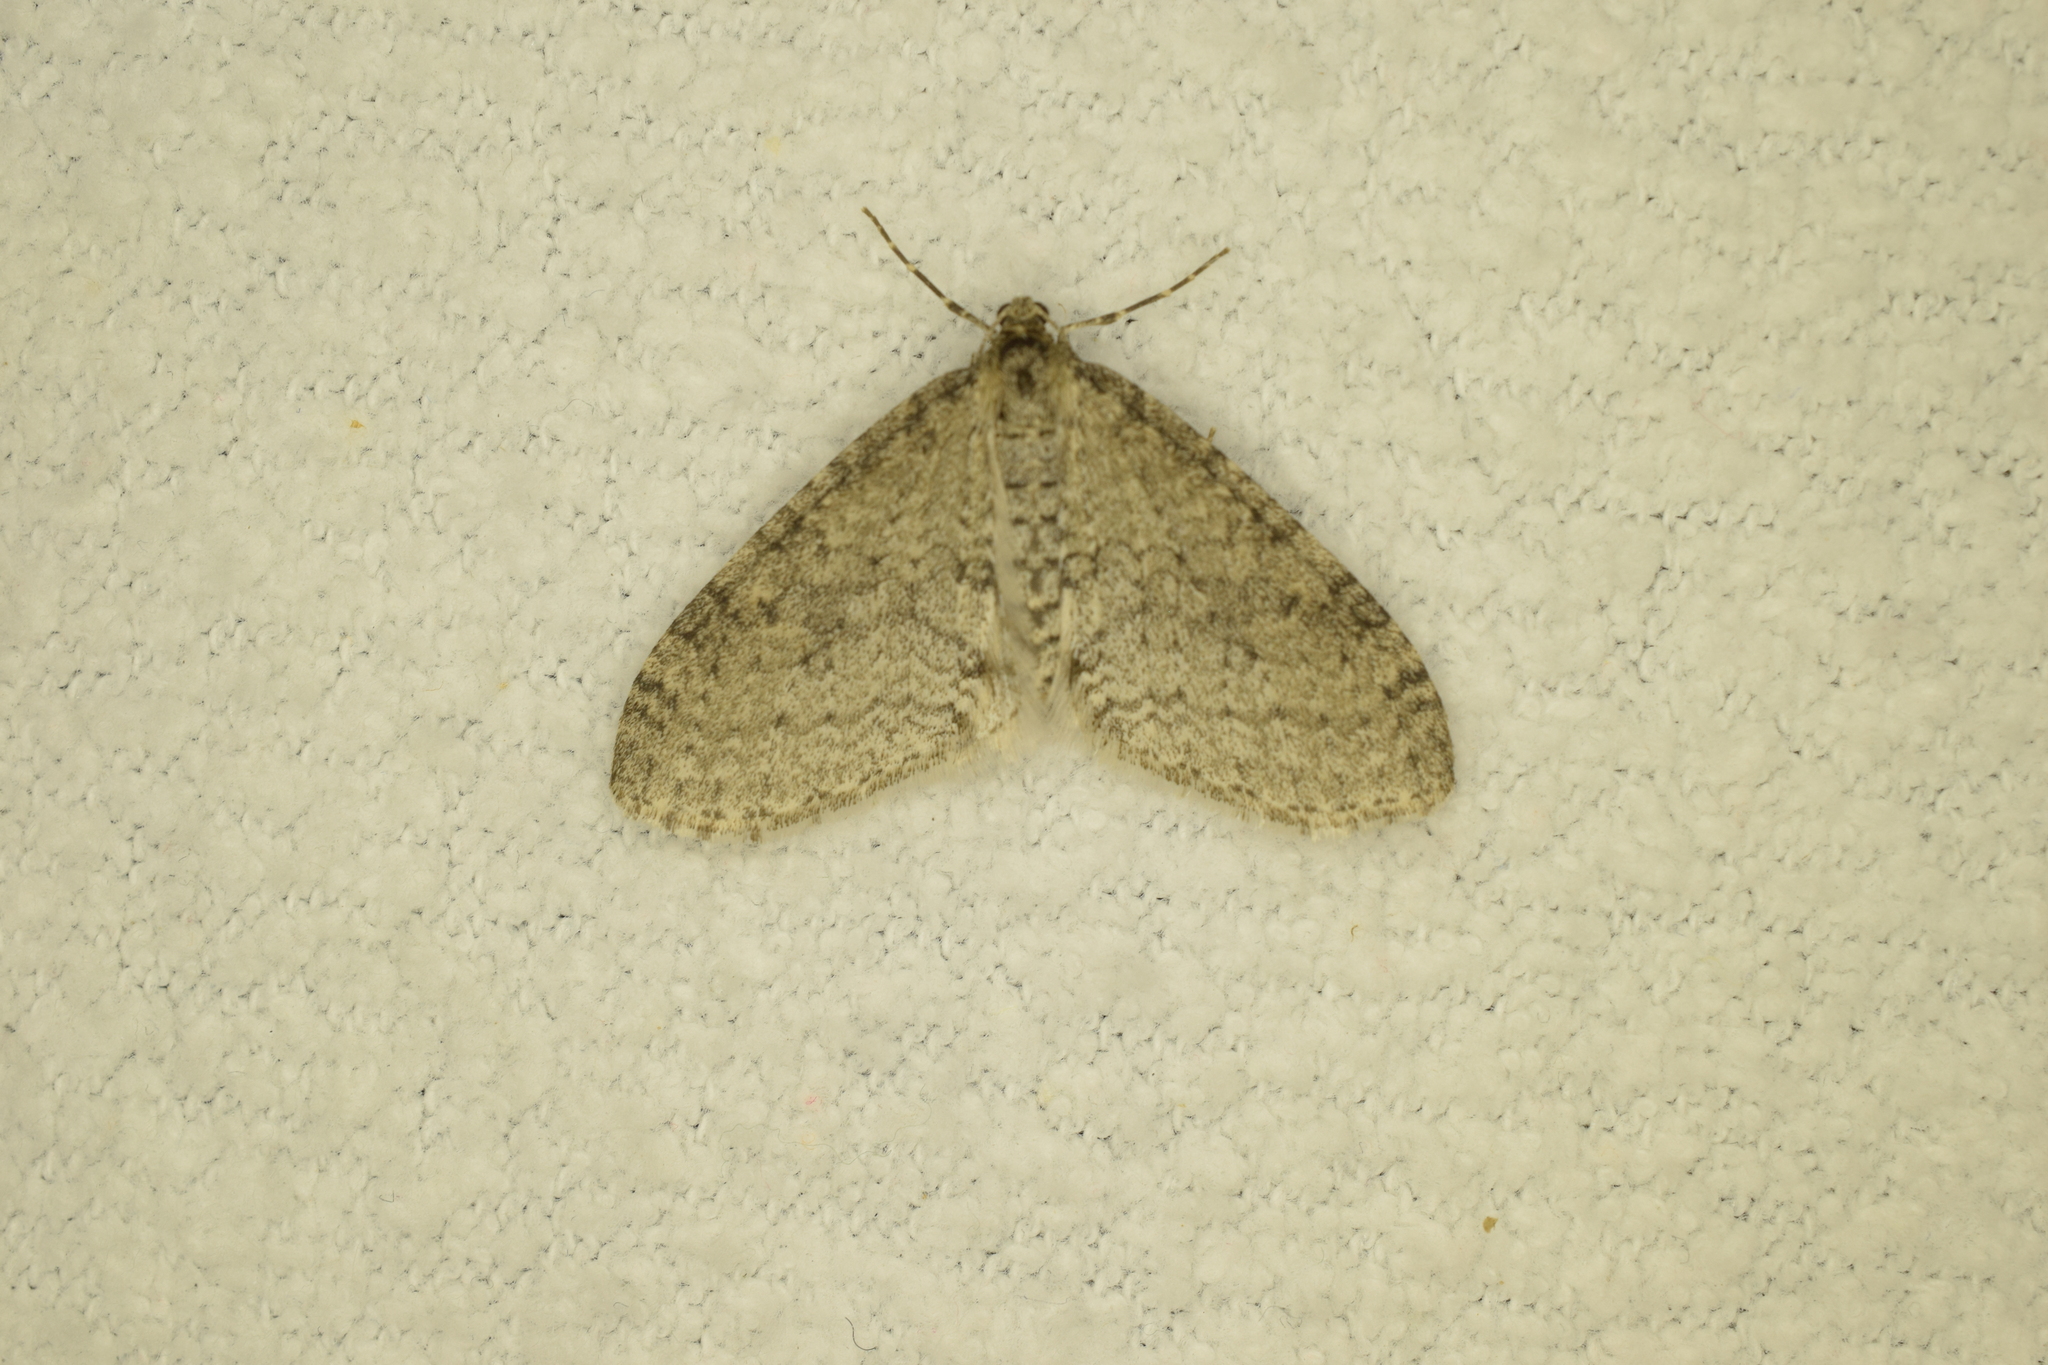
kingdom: Animalia
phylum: Arthropoda
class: Insecta
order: Lepidoptera
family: Geometridae
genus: Trichopteryx
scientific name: Trichopteryx carpinata
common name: Early tooth-striped
